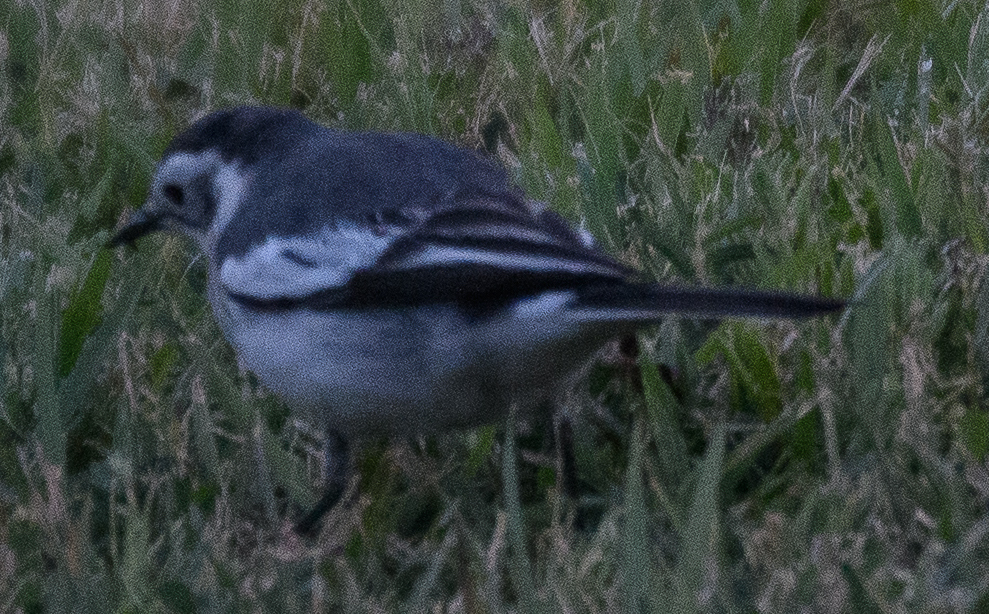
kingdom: Animalia
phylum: Chordata
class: Aves
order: Passeriformes
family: Motacillidae
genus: Motacilla
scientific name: Motacilla alba
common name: White wagtail
